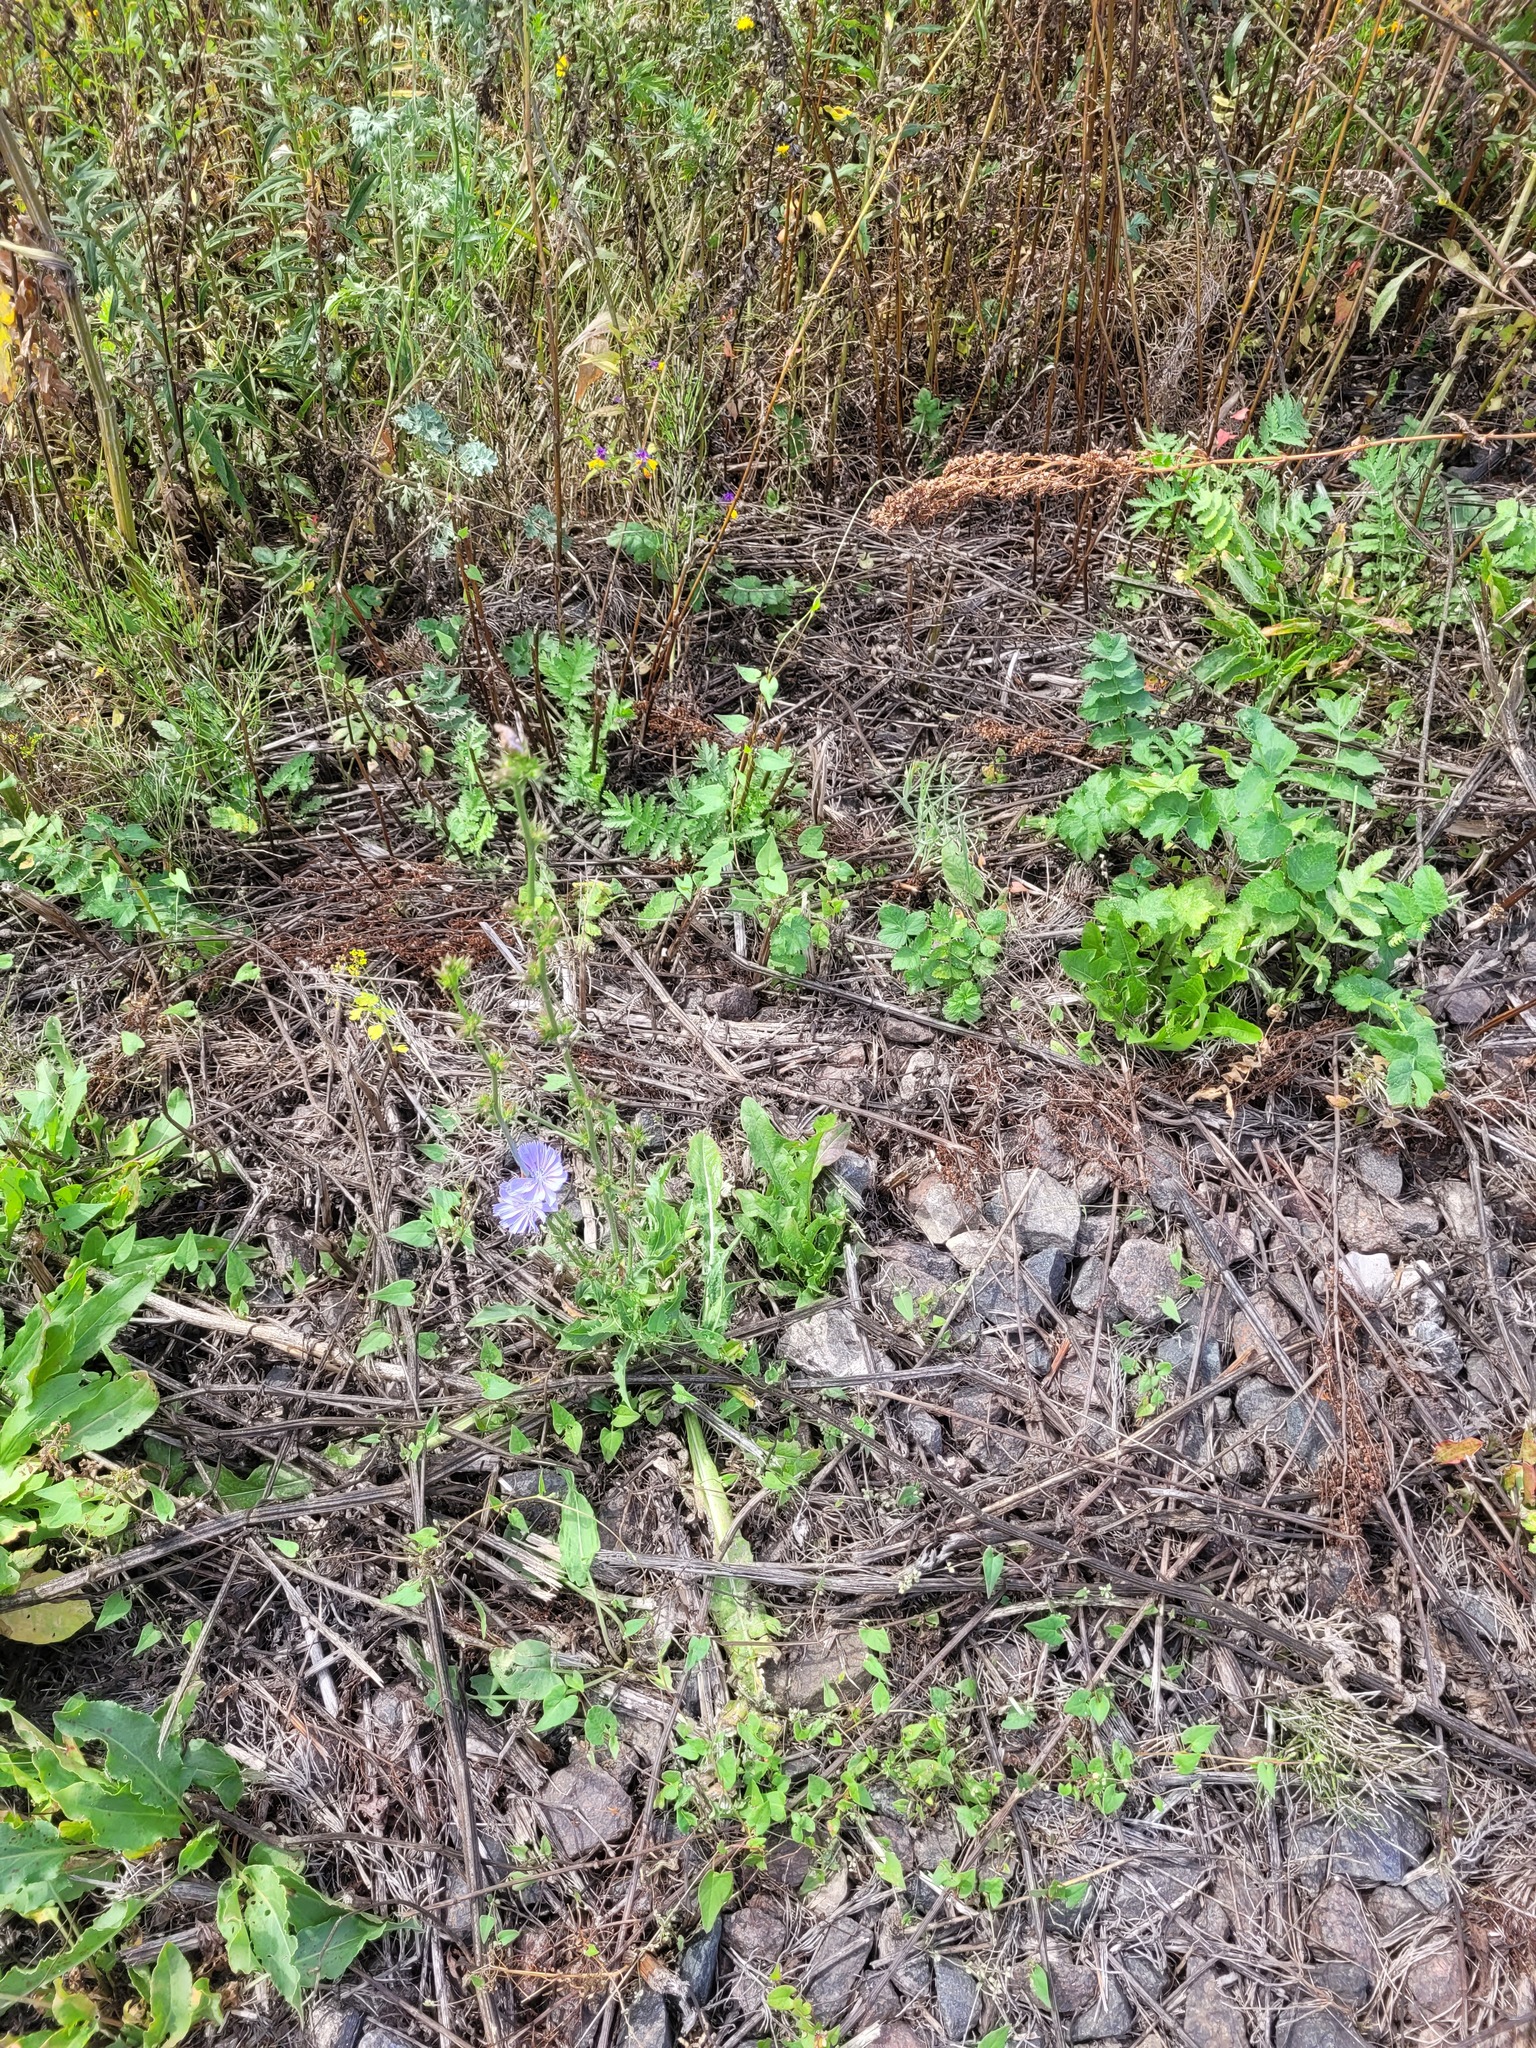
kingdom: Plantae
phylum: Tracheophyta
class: Magnoliopsida
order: Asterales
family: Asteraceae
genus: Cichorium
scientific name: Cichorium intybus
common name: Chicory
